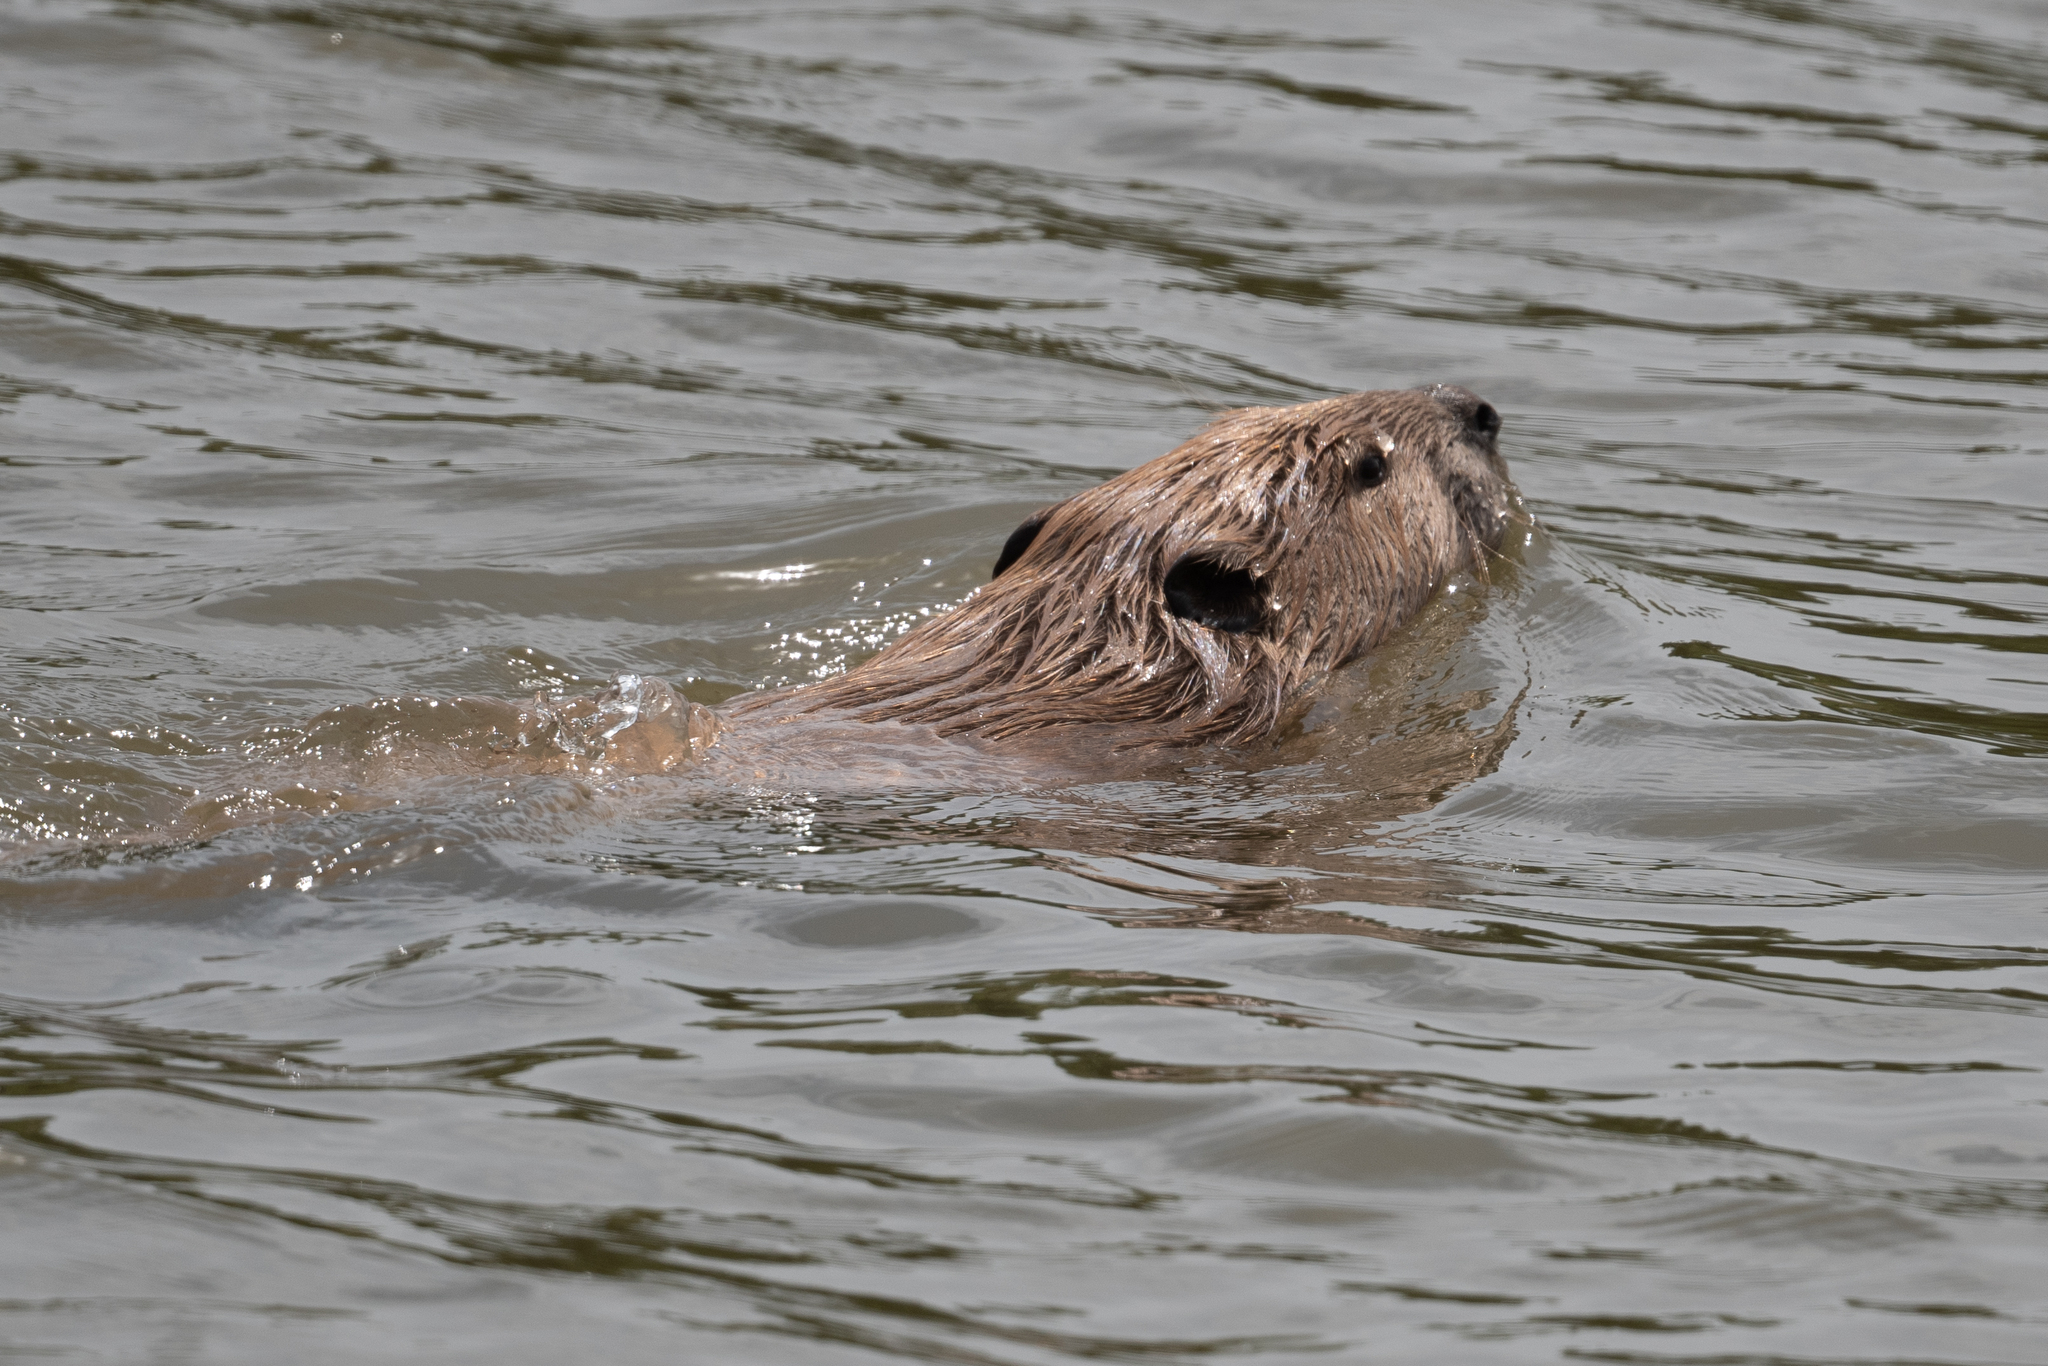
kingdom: Animalia
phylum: Chordata
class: Mammalia
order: Rodentia
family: Castoridae
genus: Castor
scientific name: Castor canadensis
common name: American beaver
